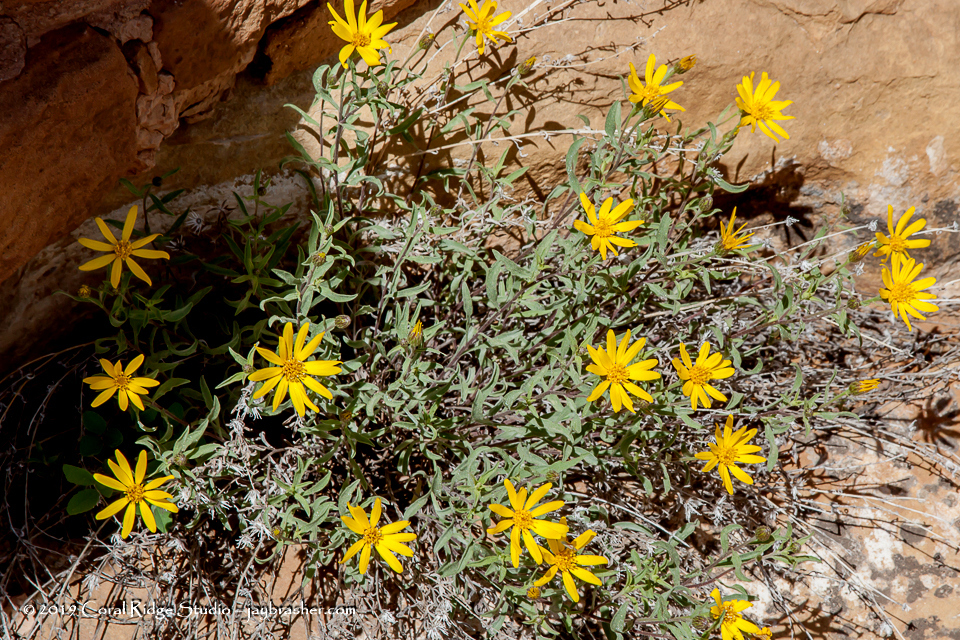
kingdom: Plantae
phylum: Tracheophyta
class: Magnoliopsida
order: Asterales
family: Asteraceae
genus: Heterotheca
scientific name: Heterotheca polothrix
